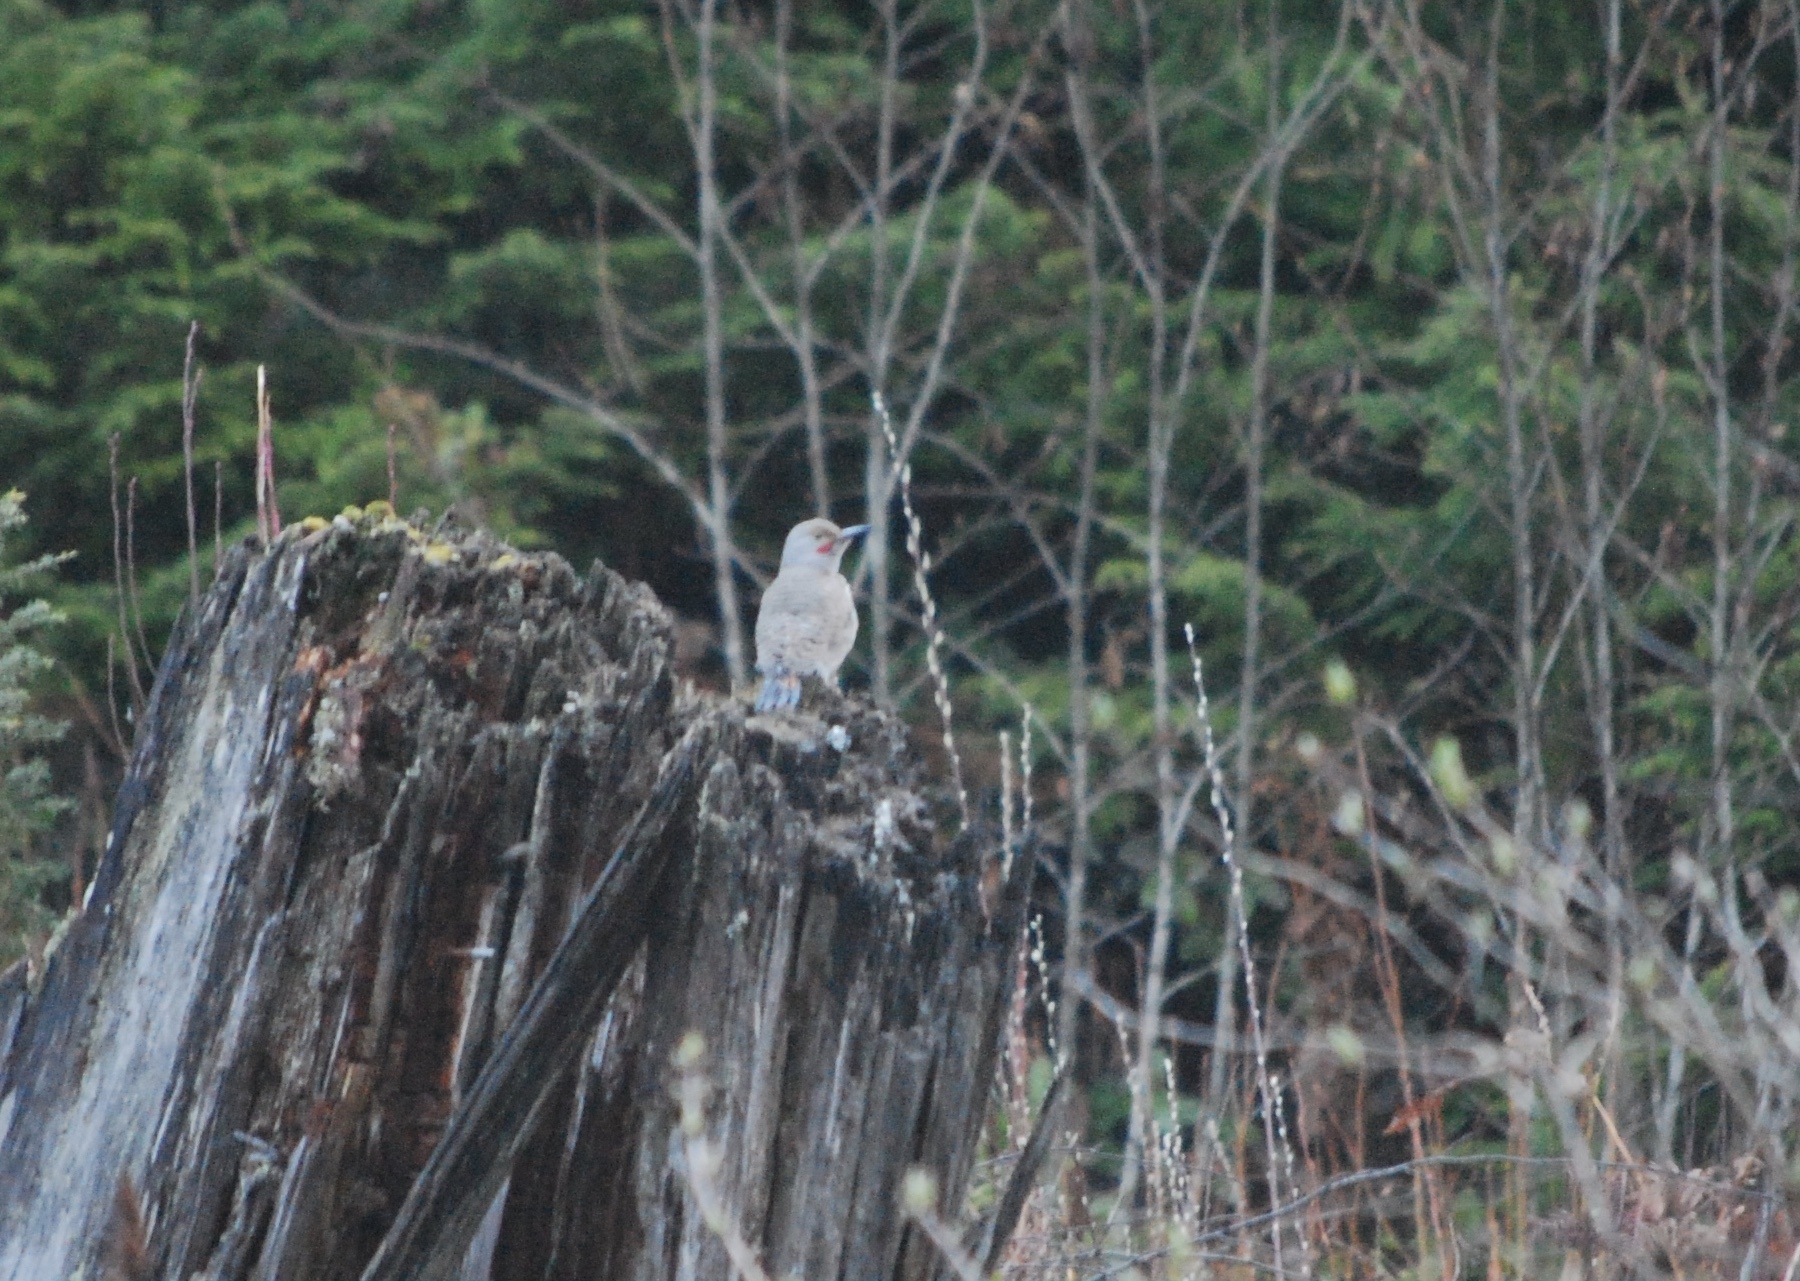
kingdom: Animalia
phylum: Chordata
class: Aves
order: Piciformes
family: Picidae
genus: Colaptes
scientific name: Colaptes auratus
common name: Northern flicker
